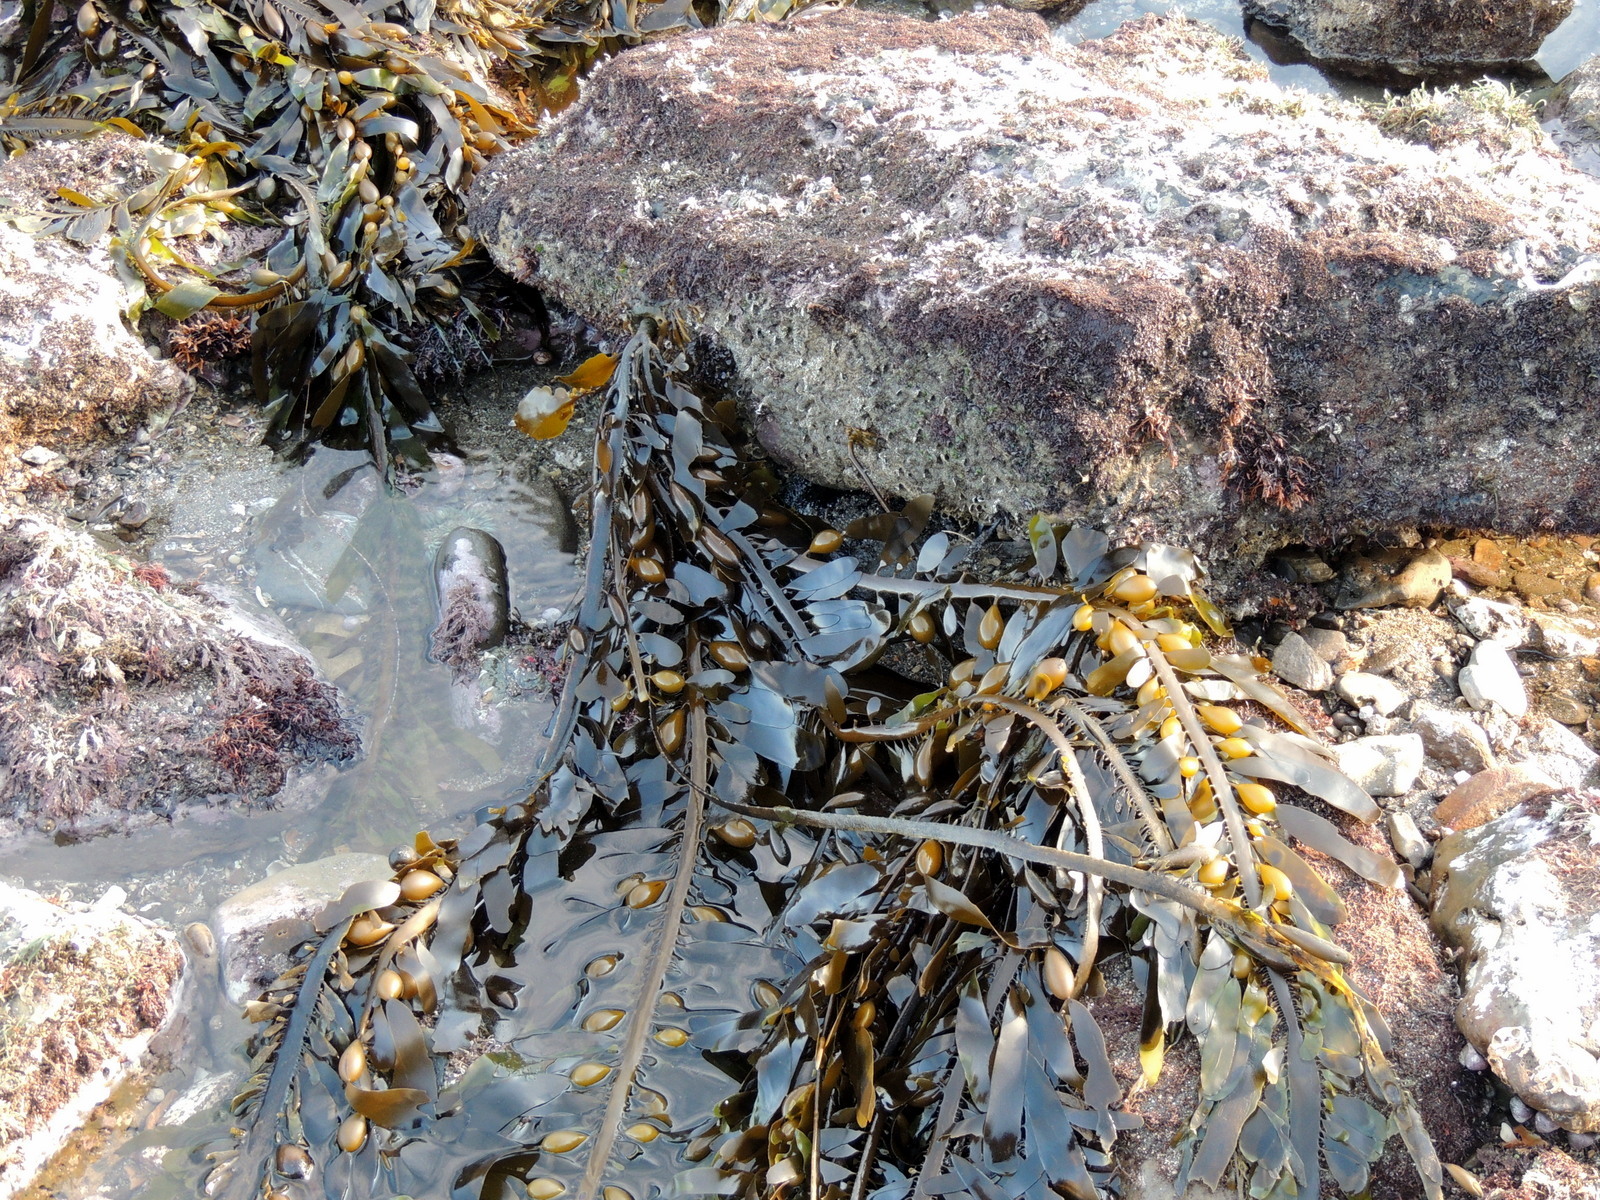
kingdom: Chromista
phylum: Ochrophyta
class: Phaeophyceae
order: Laminariales
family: Lessoniaceae
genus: Egregia
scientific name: Egregia menziesii
